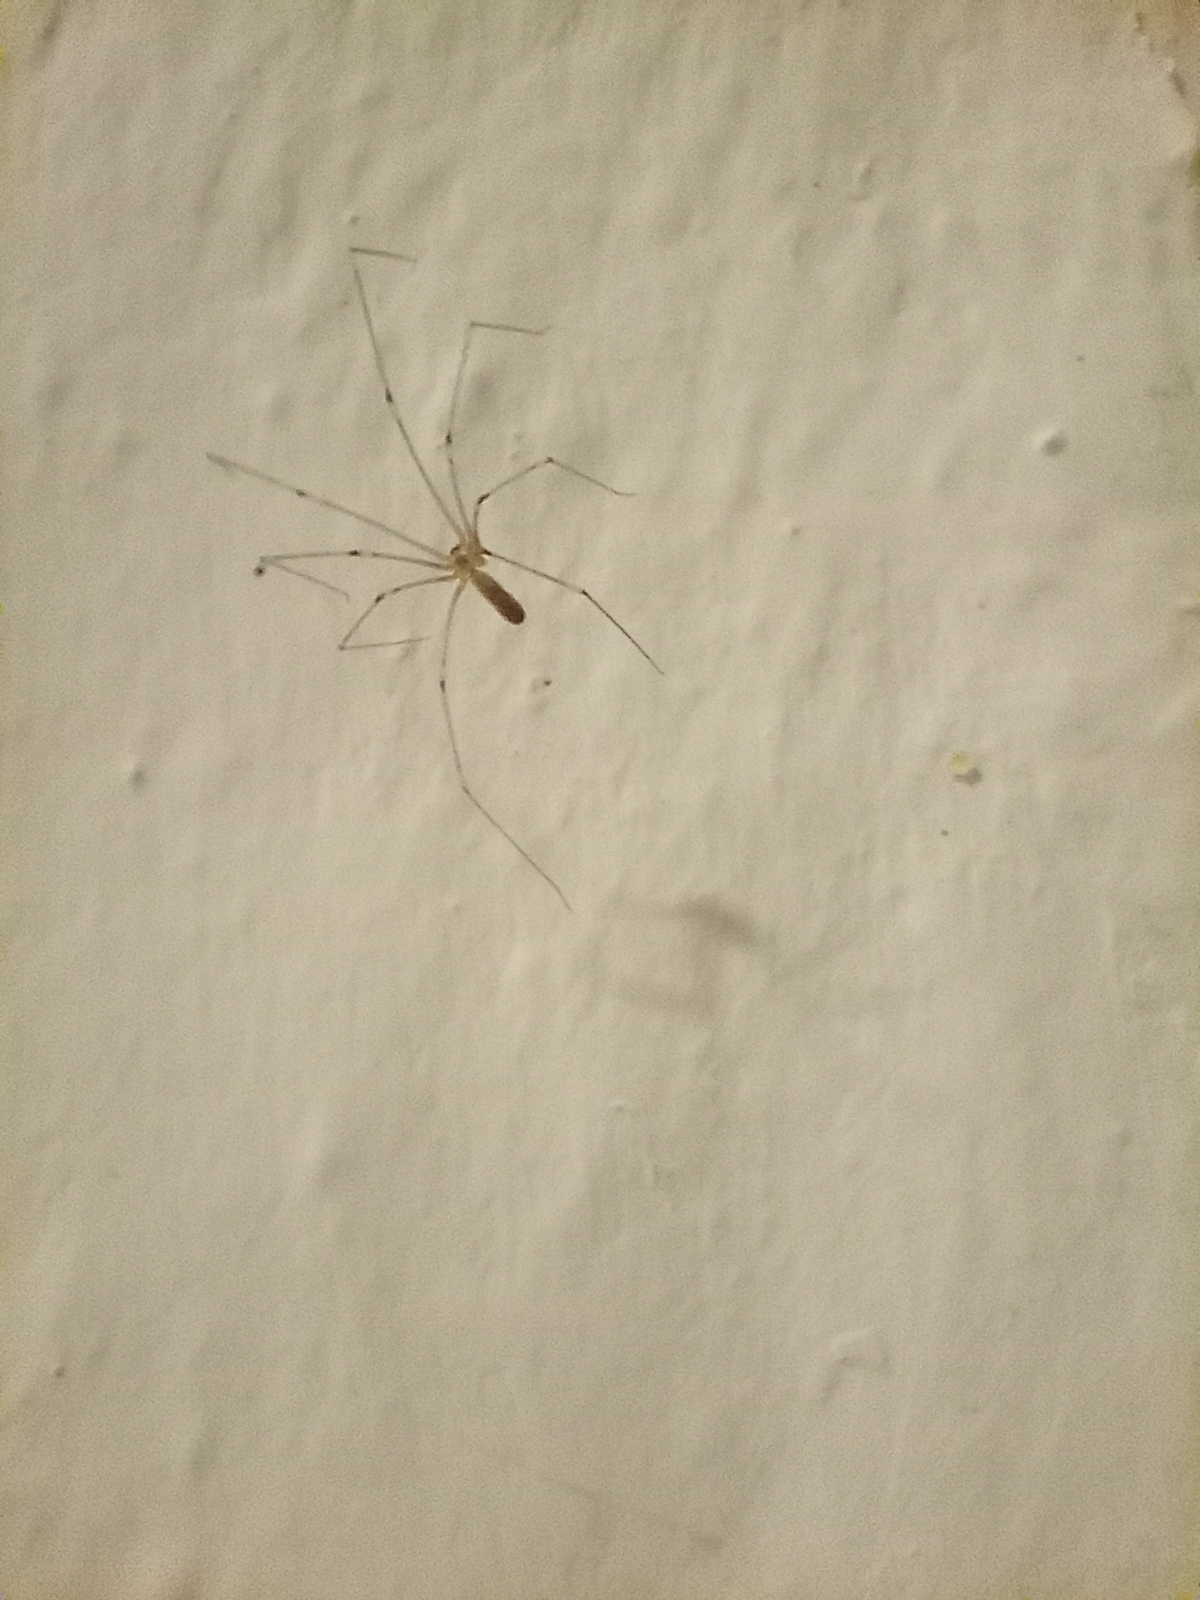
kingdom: Animalia
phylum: Arthropoda
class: Arachnida
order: Araneae
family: Pholcidae
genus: Pholcus
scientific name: Pholcus phalangioides
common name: Longbodied cellar spider
